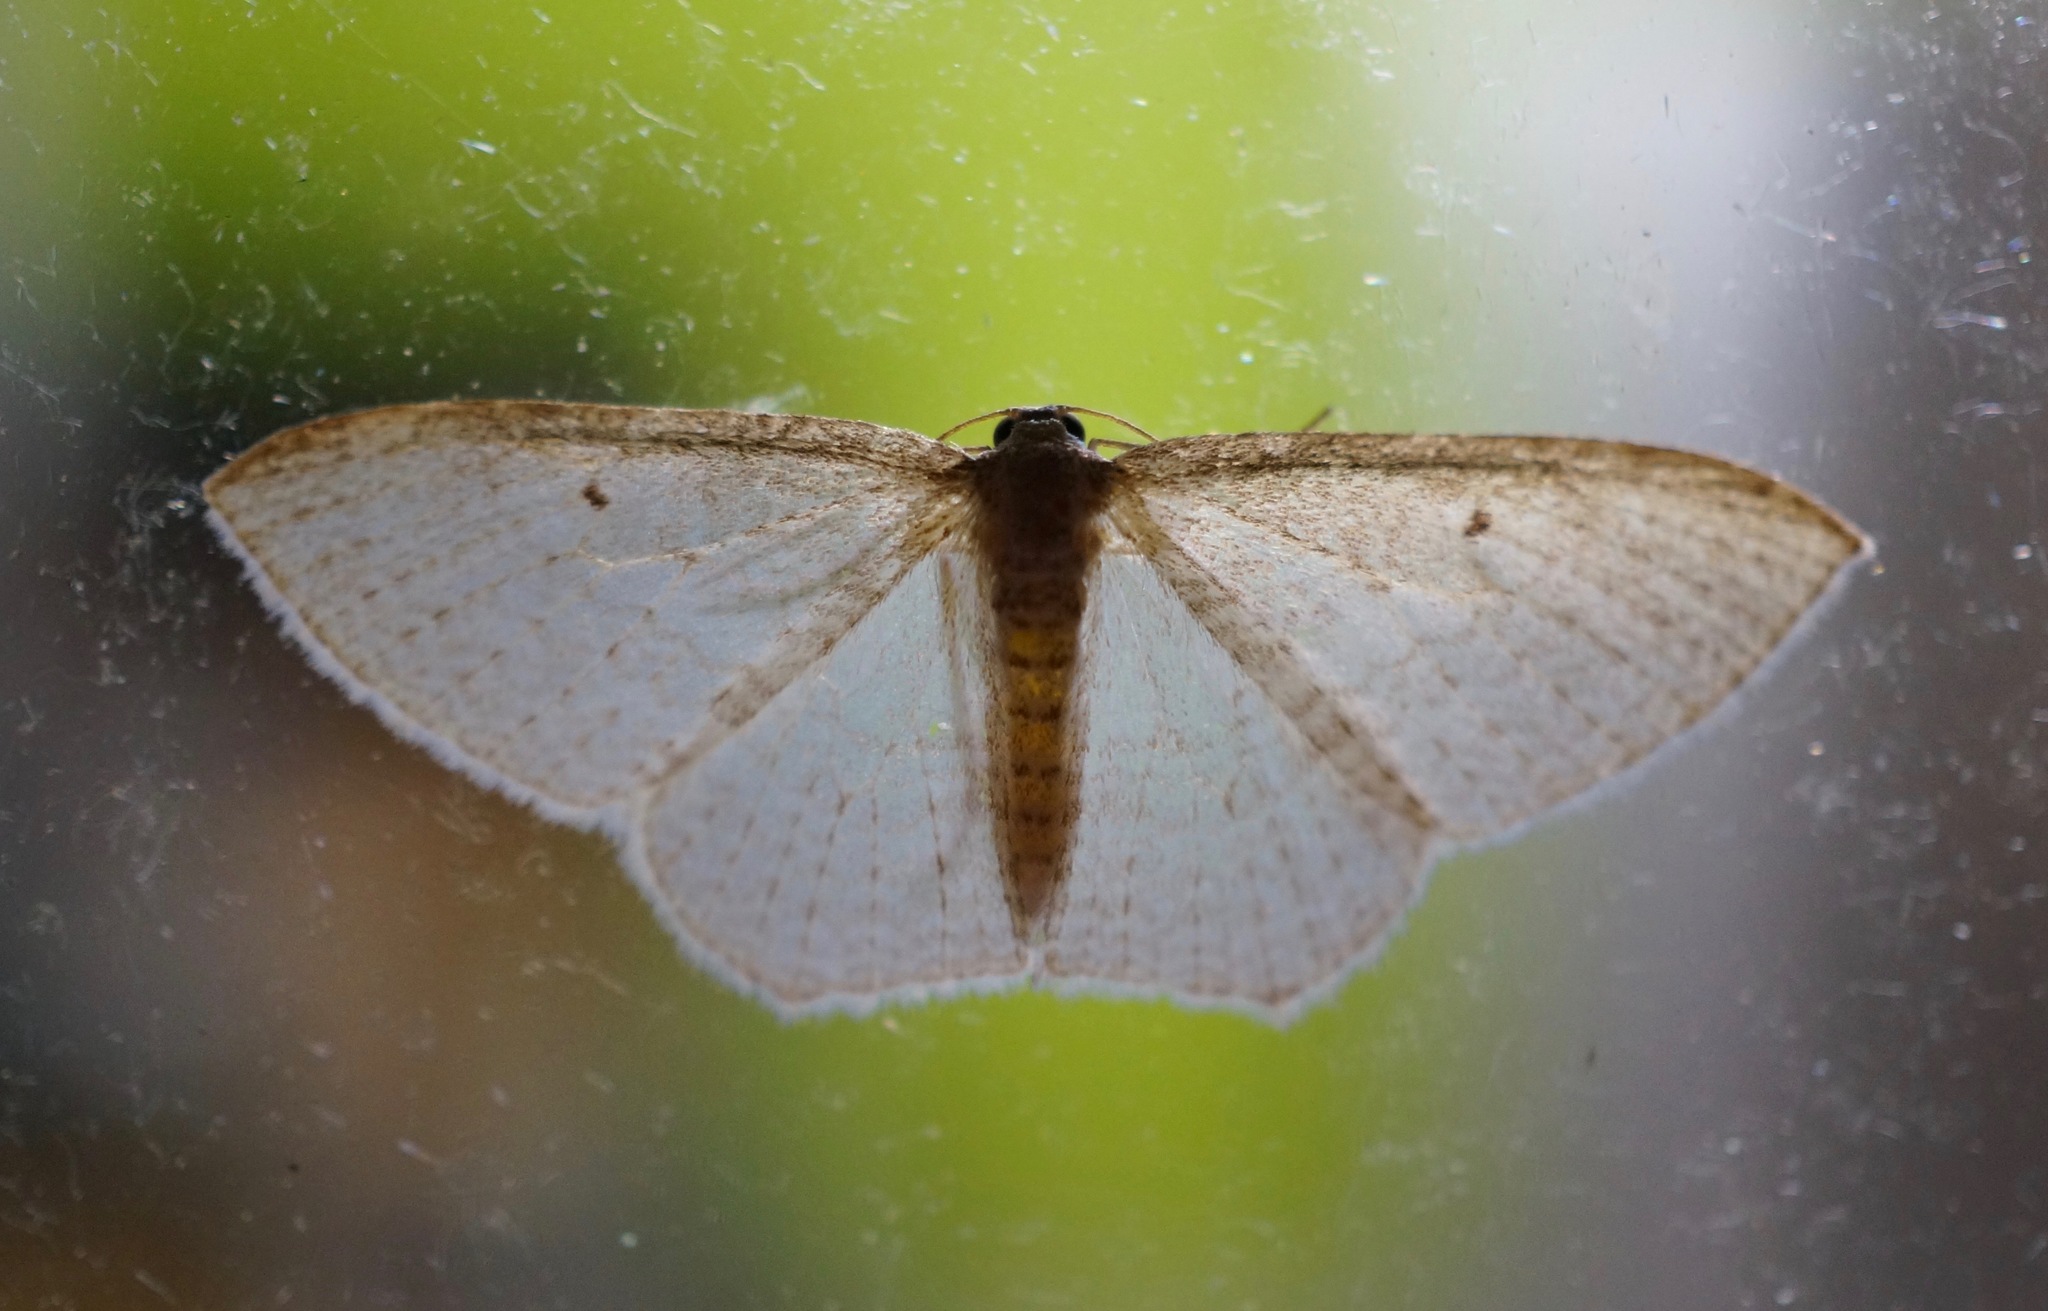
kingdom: Animalia
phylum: Arthropoda
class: Insecta
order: Lepidoptera
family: Geometridae
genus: Poecilasthena
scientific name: Poecilasthena pulchraria
